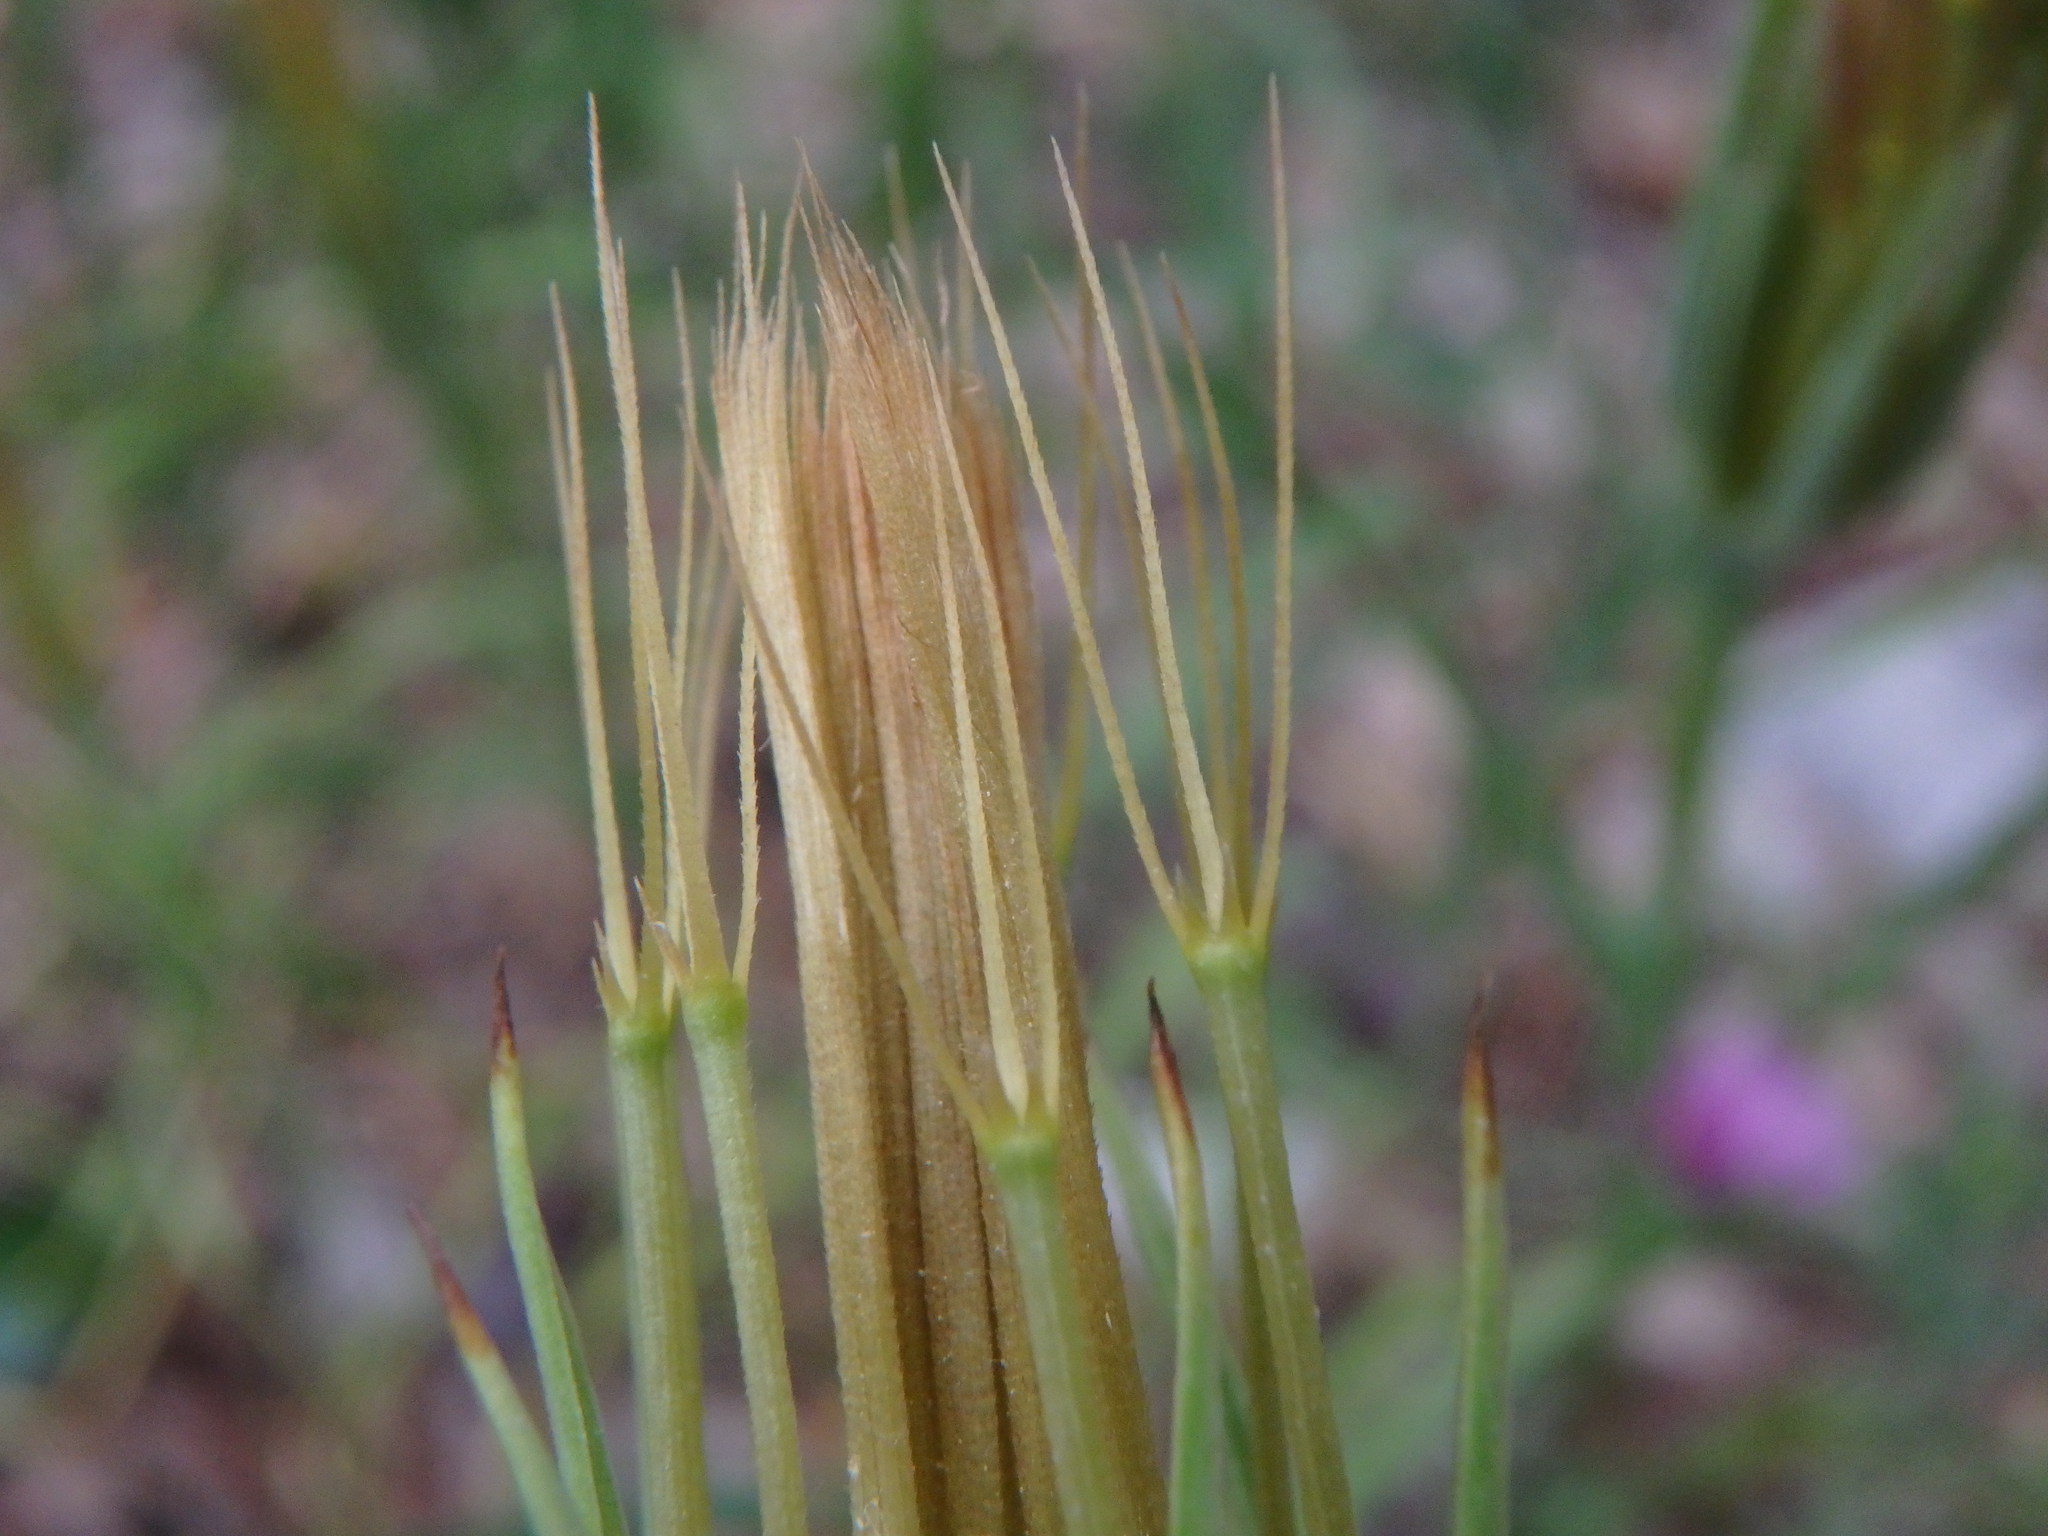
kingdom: Plantae
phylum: Tracheophyta
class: Magnoliopsida
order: Asterales
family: Asteraceae
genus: Tragopogon
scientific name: Tragopogon porrifolius
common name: Salsify
